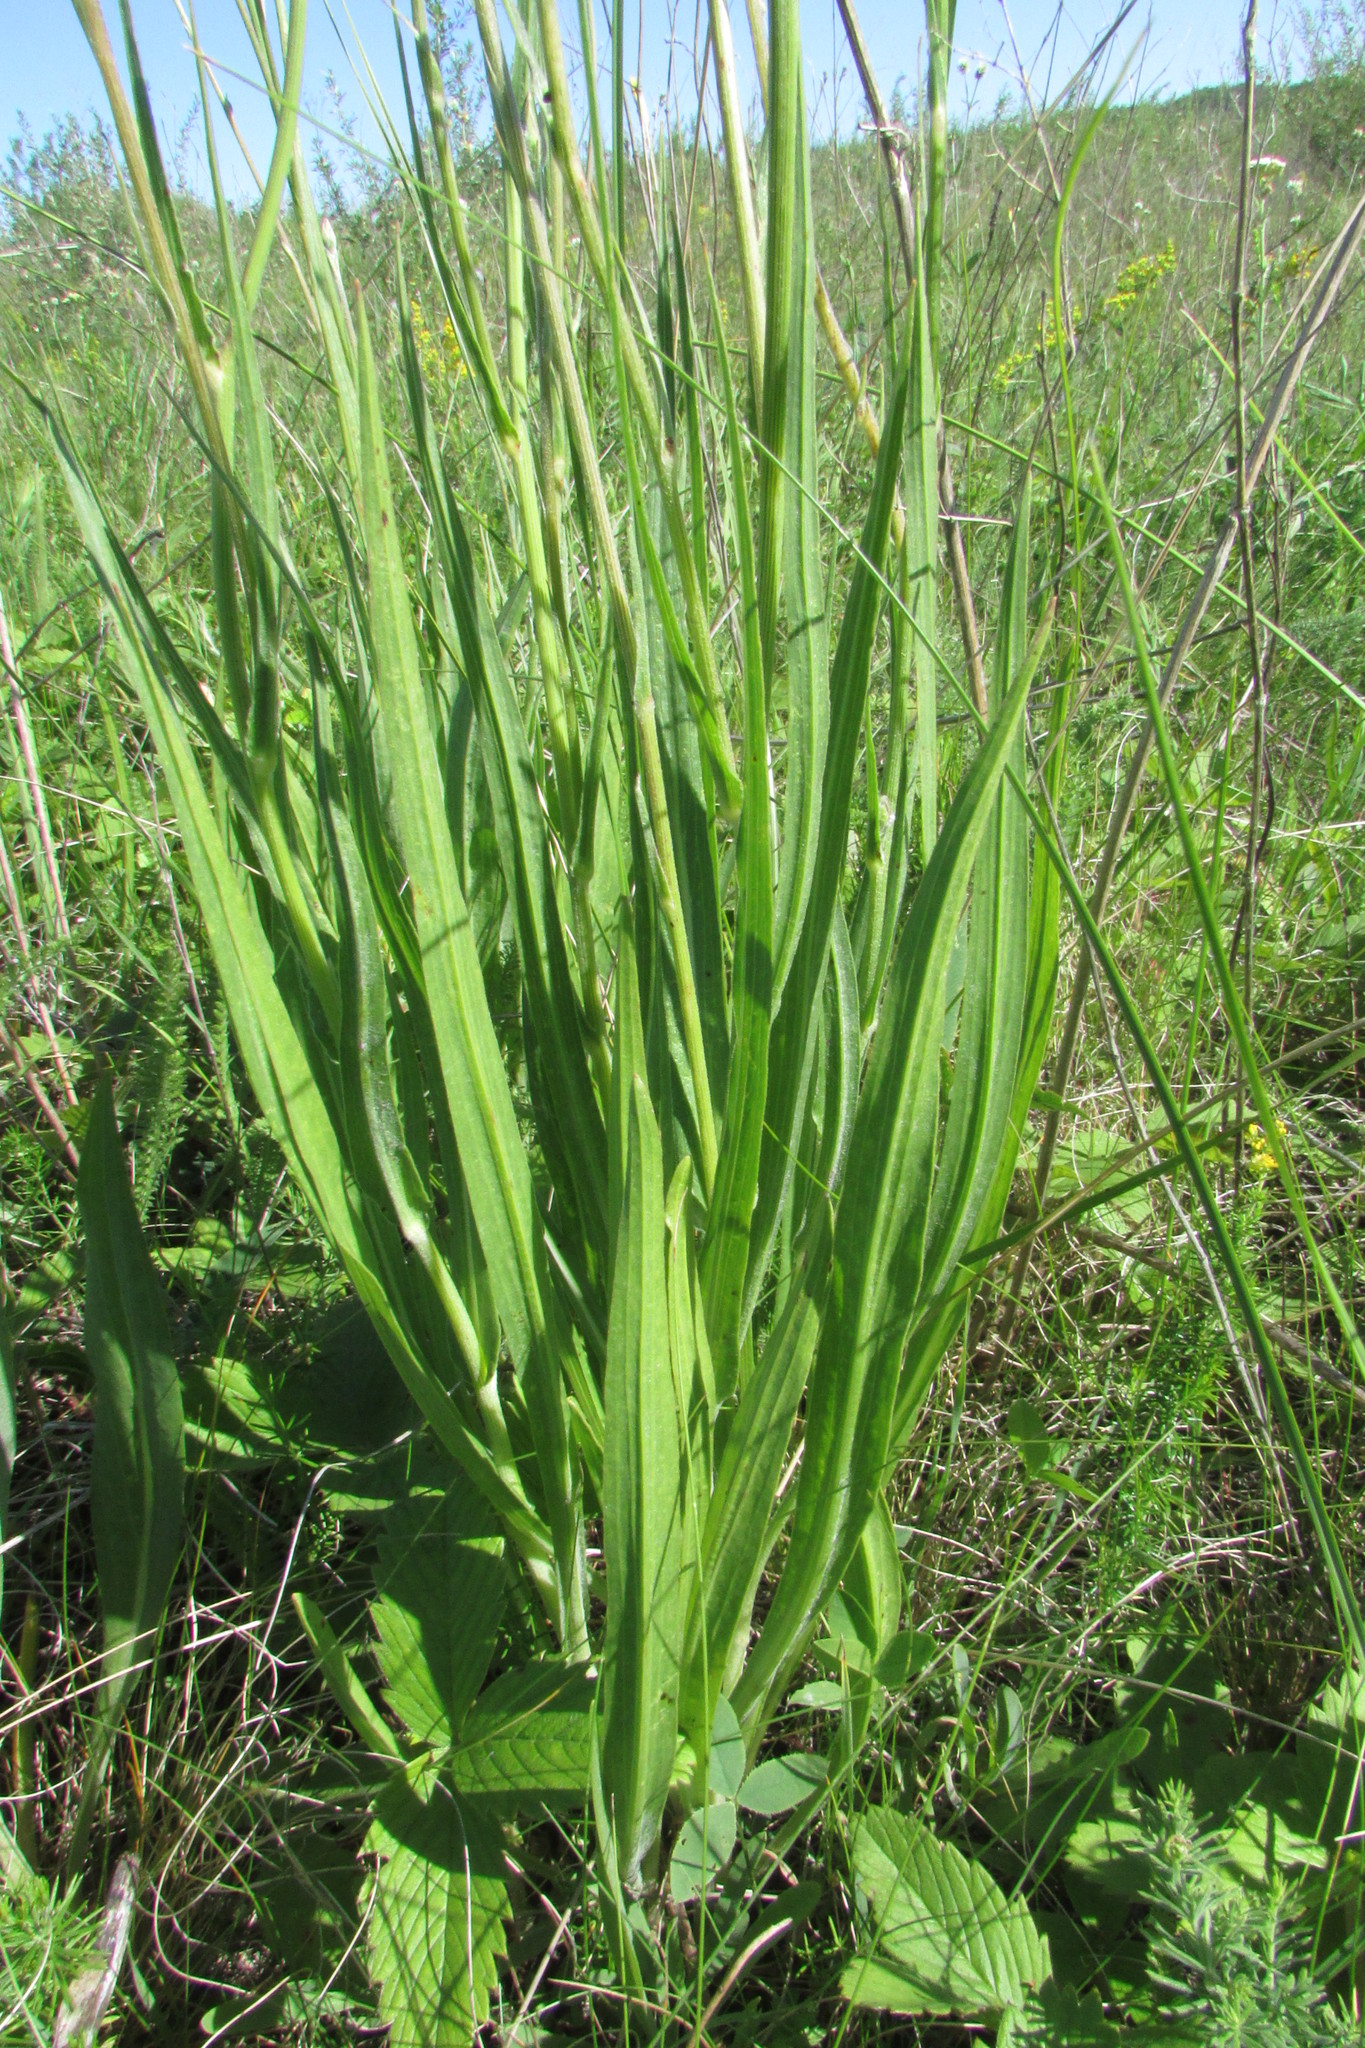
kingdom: Plantae
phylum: Tracheophyta
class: Magnoliopsida
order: Asterales
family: Asteraceae
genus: Pseudopodospermum
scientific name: Pseudopodospermum strictum
